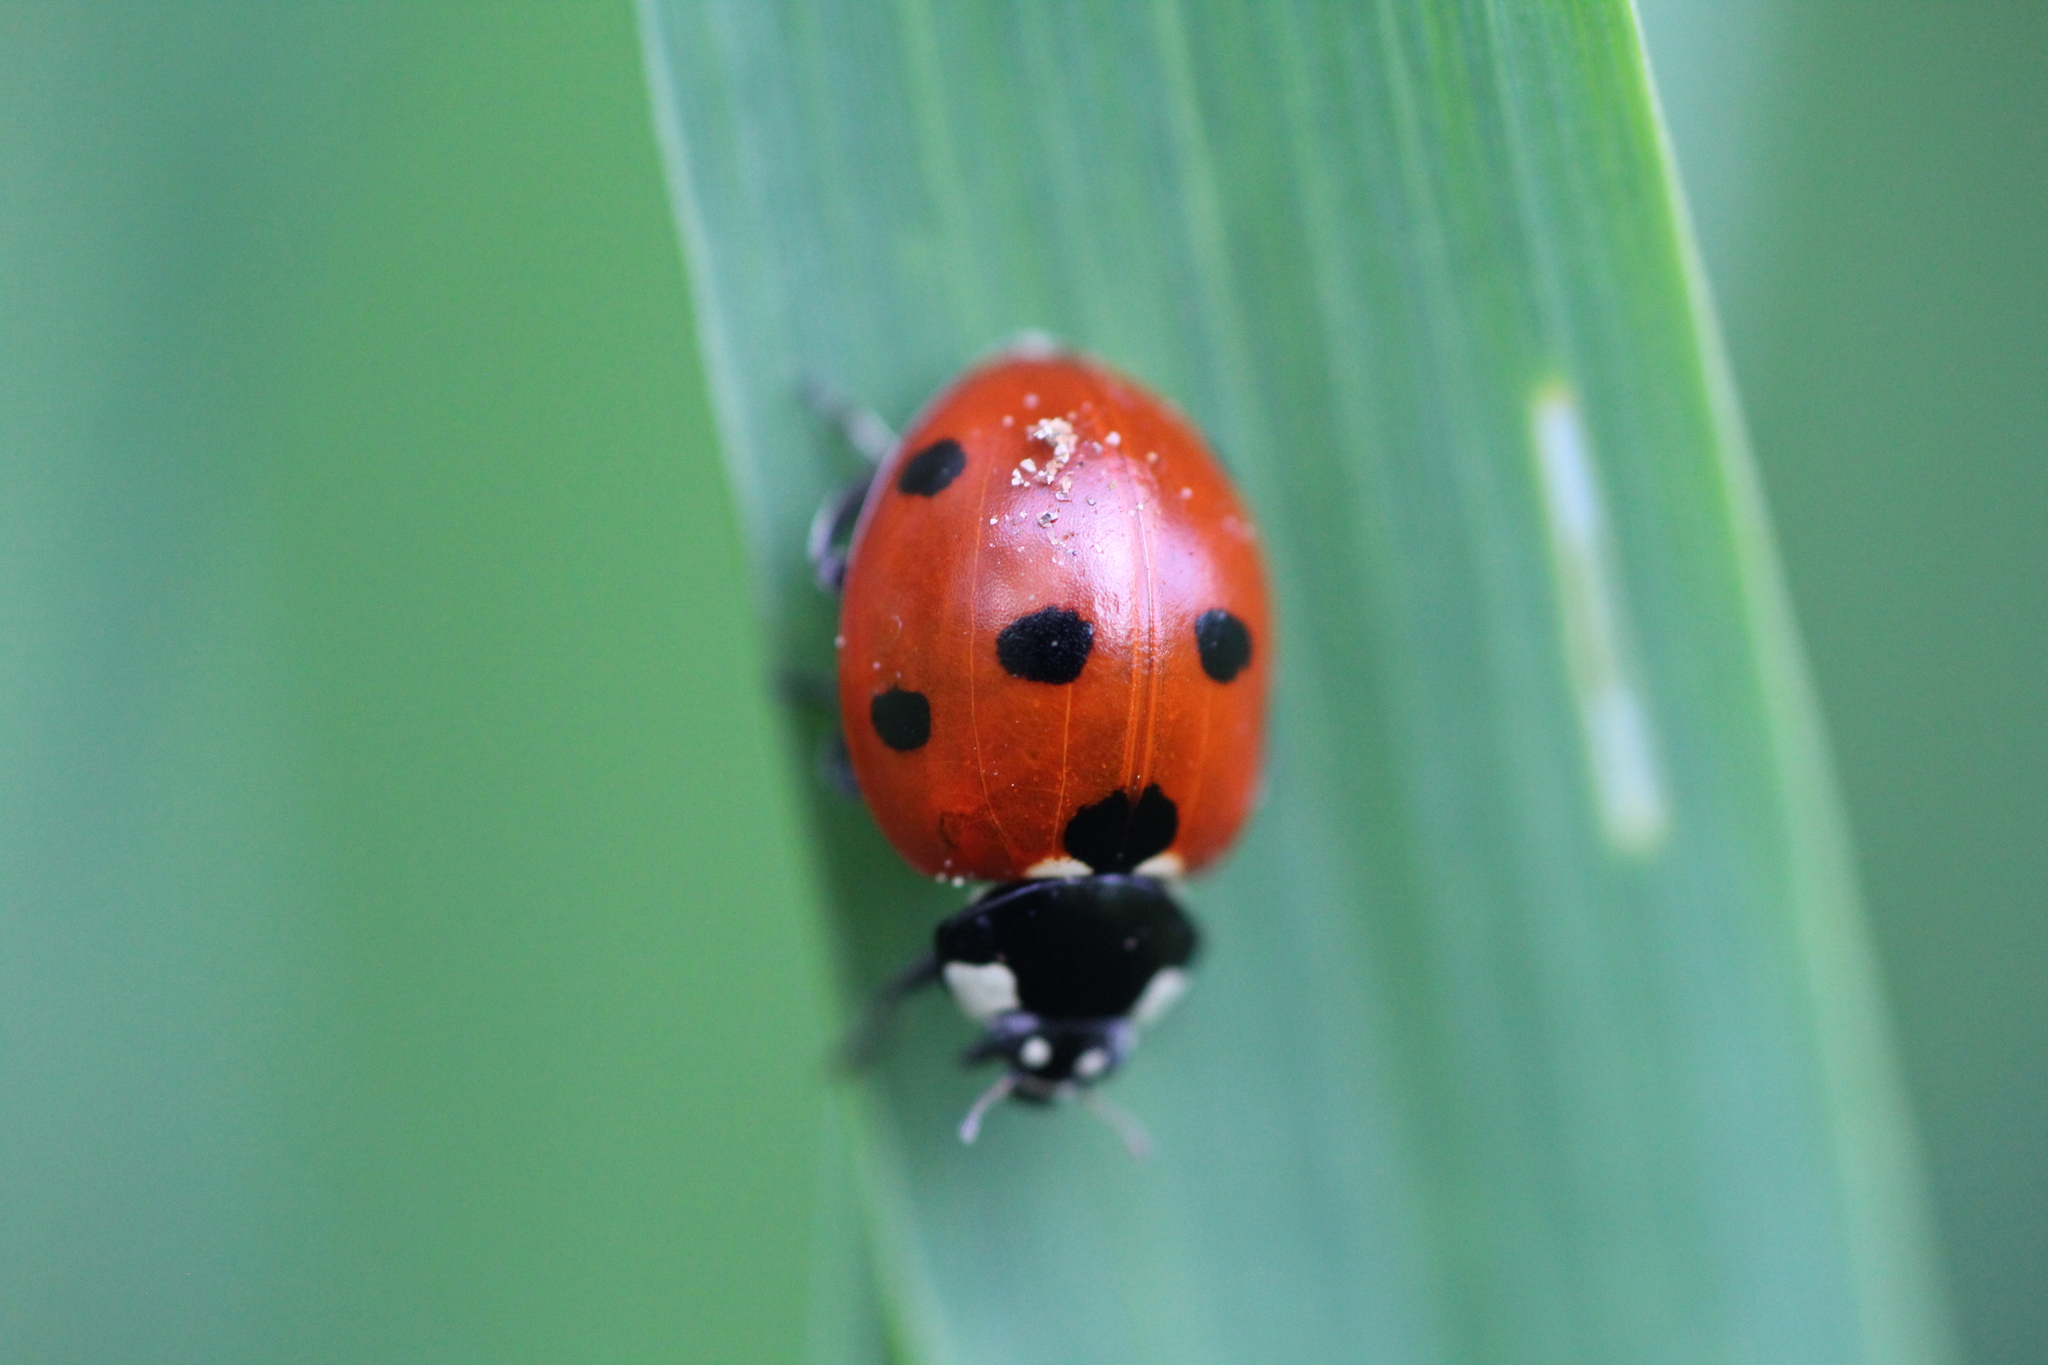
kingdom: Animalia
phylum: Arthropoda
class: Insecta
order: Coleoptera
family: Coccinellidae
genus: Coccinella
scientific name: Coccinella septempunctata
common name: Sevenspotted lady beetle
